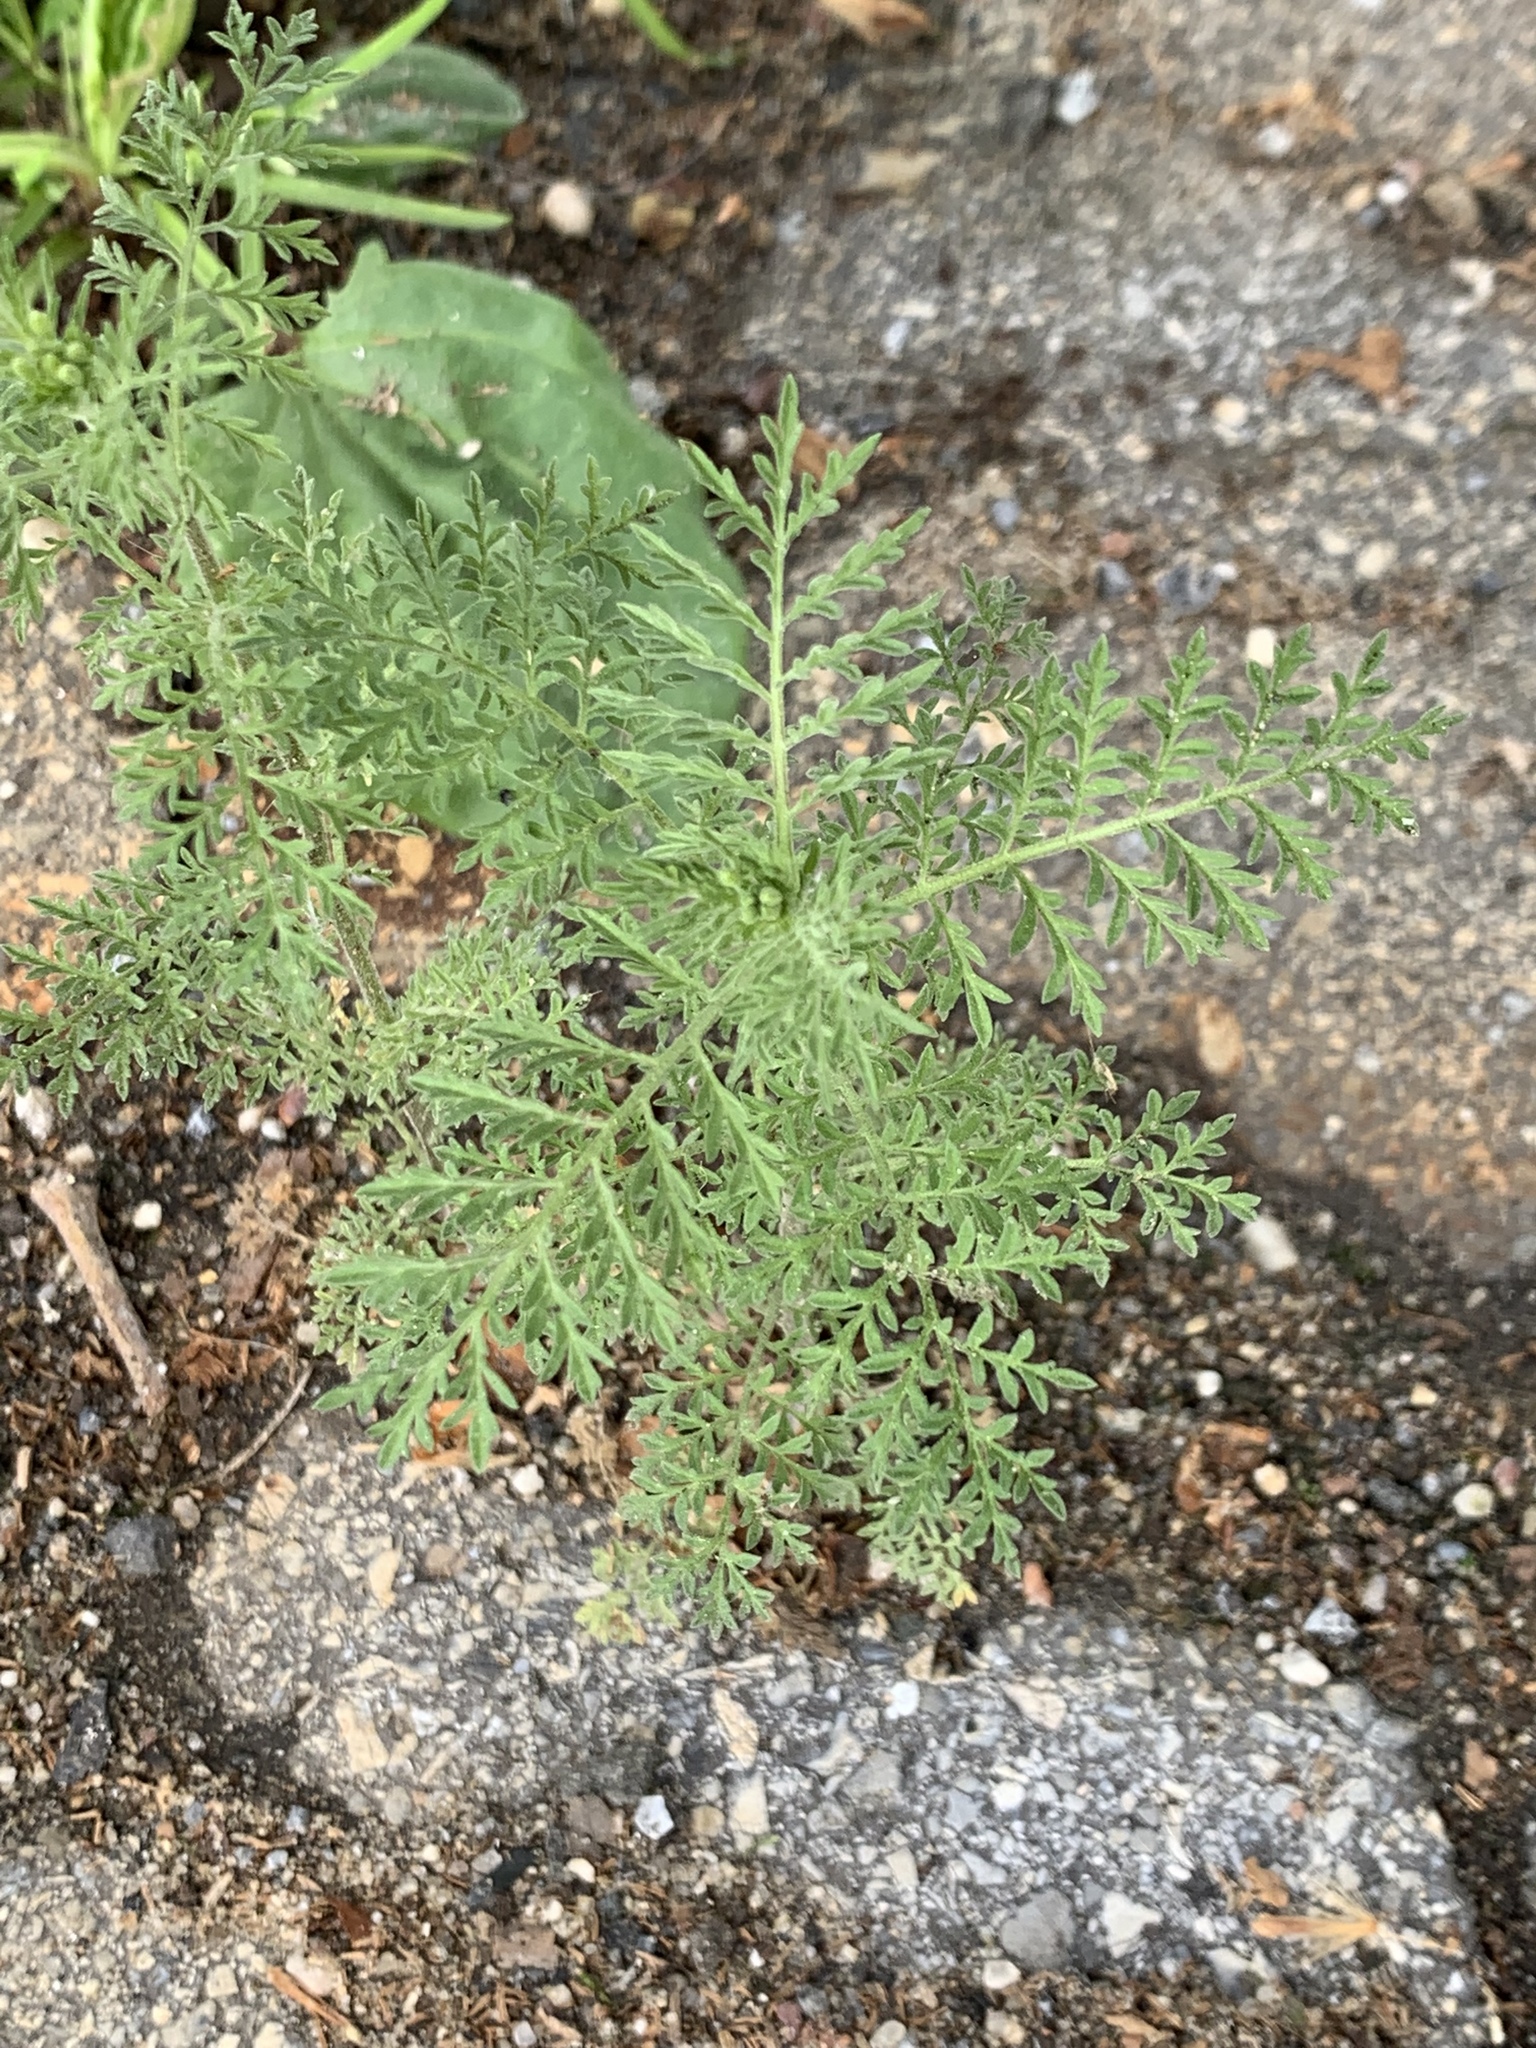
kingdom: Plantae
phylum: Tracheophyta
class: Magnoliopsida
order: Brassicales
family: Brassicaceae
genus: Descurainia
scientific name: Descurainia sophia
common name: Flixweed
